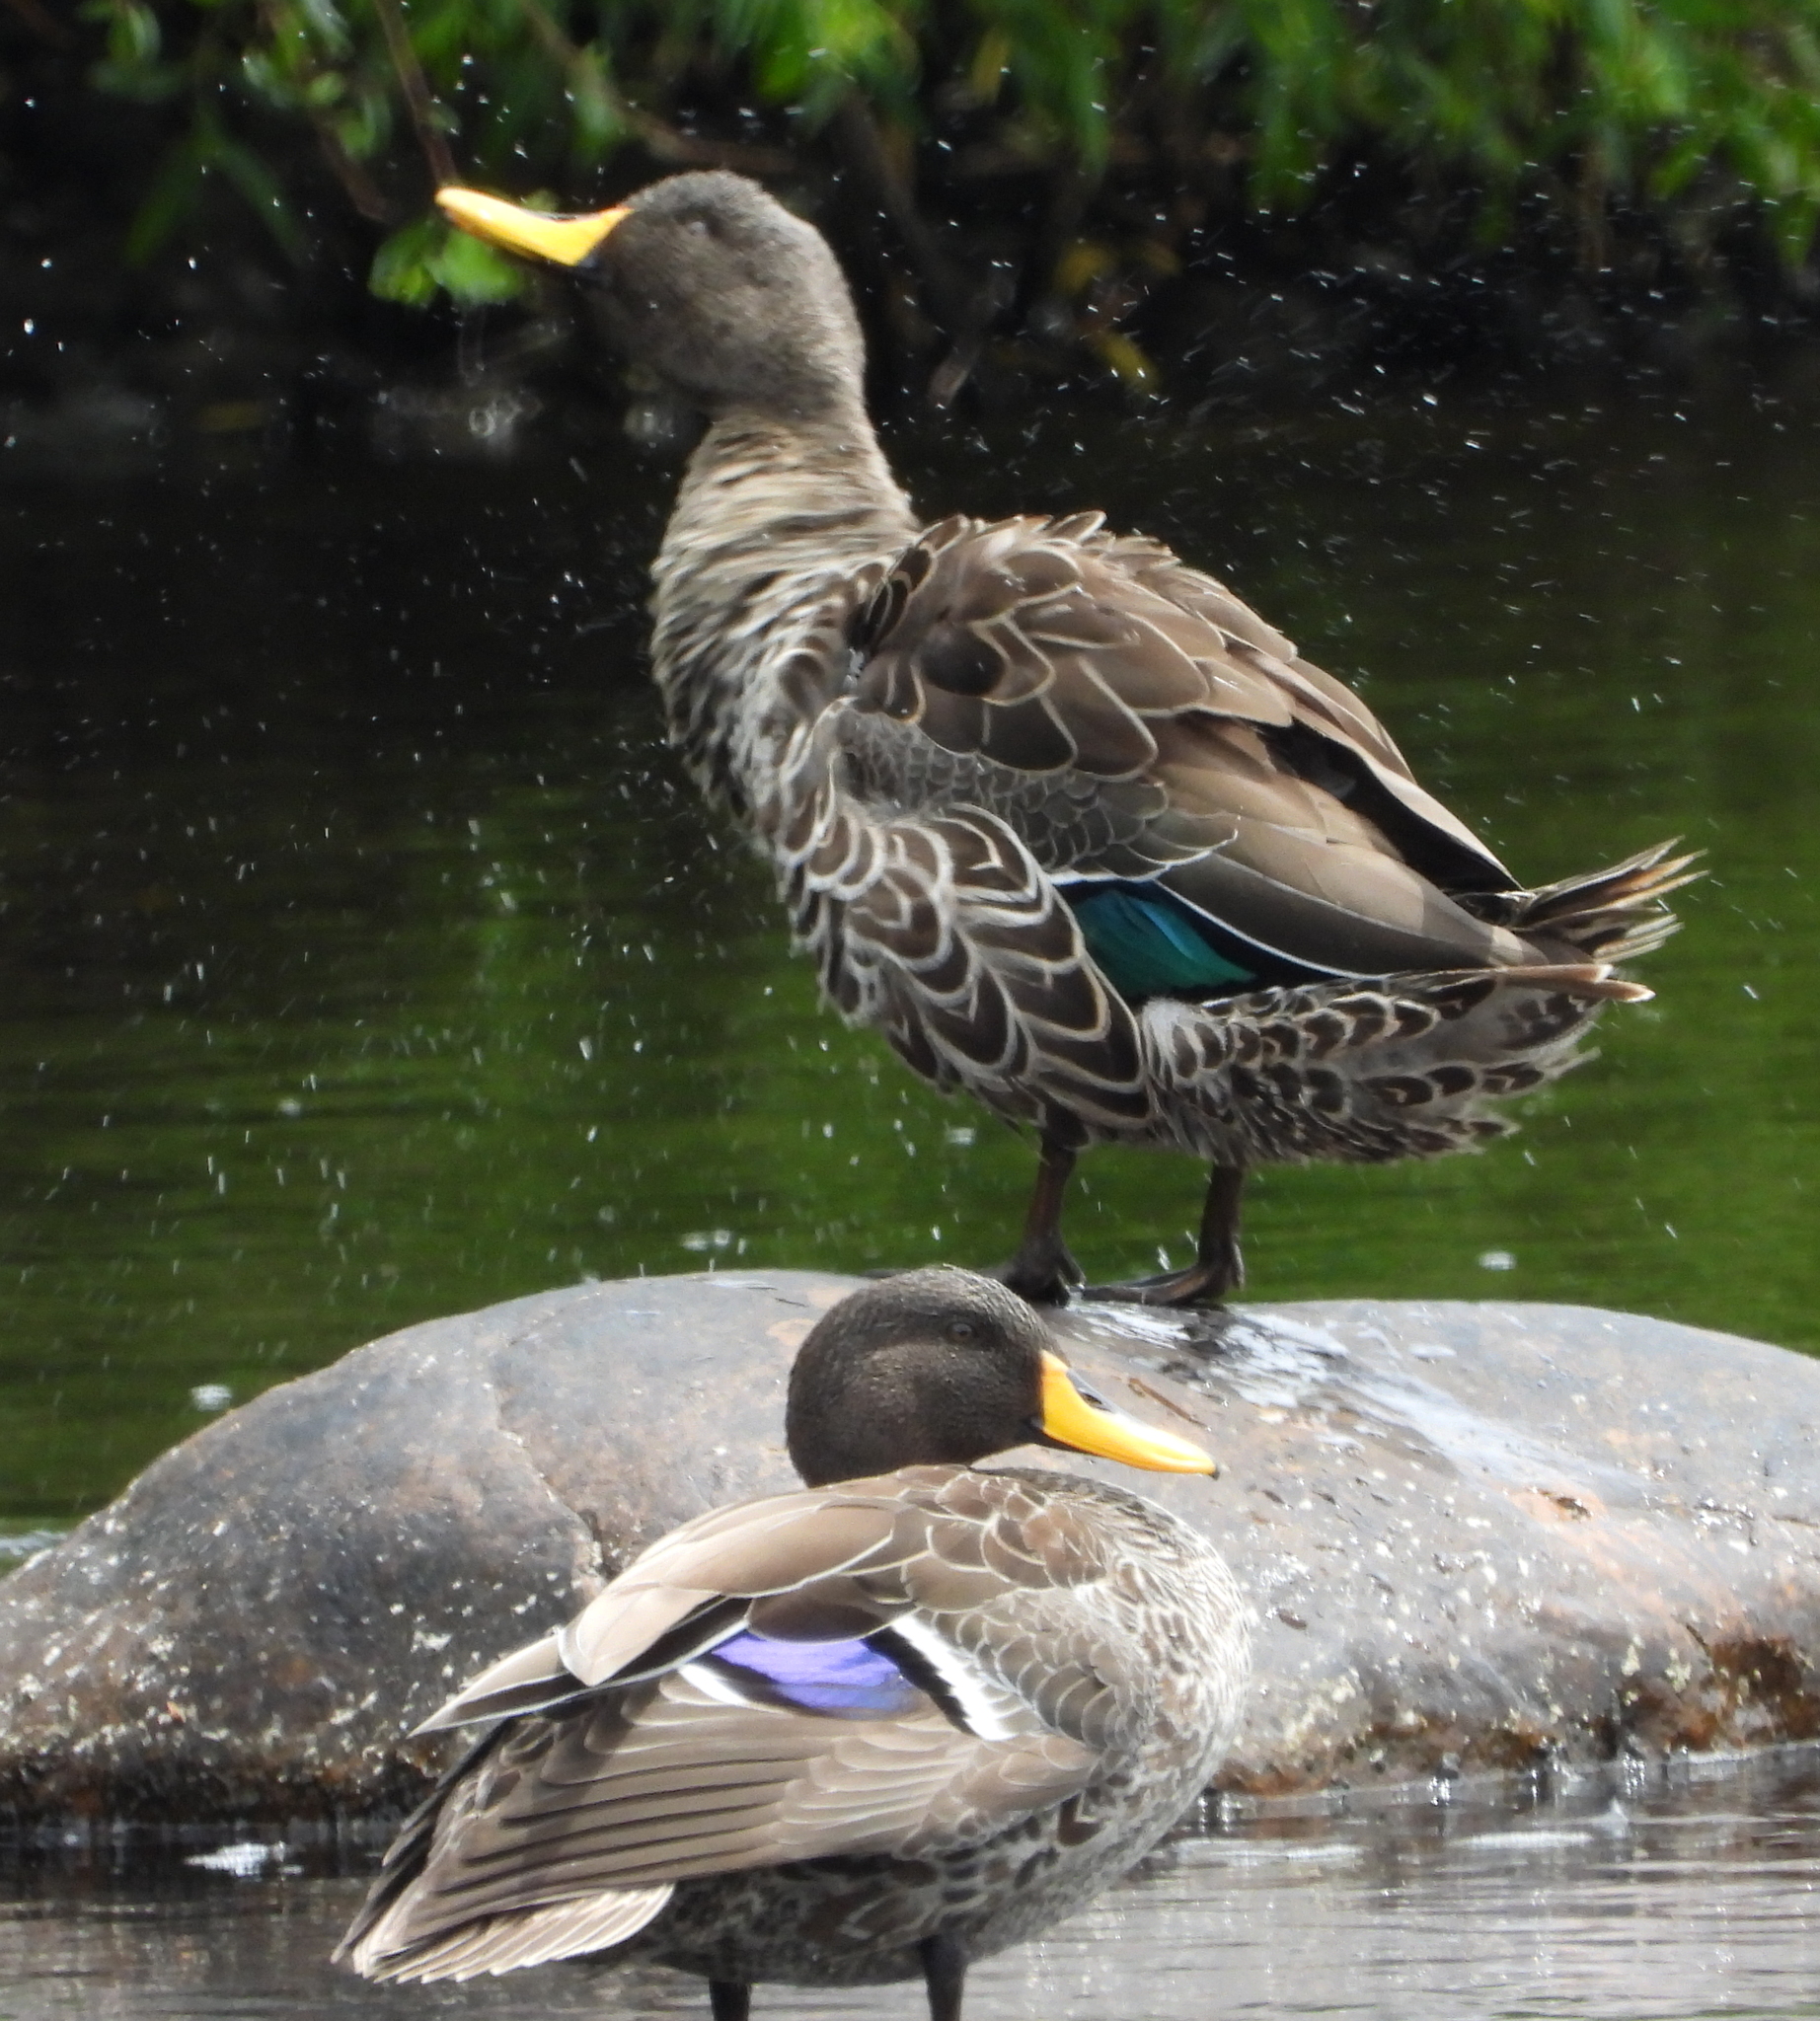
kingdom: Animalia
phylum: Chordata
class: Aves
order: Anseriformes
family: Anatidae
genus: Anas
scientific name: Anas undulata
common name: Yellow-billed duck
